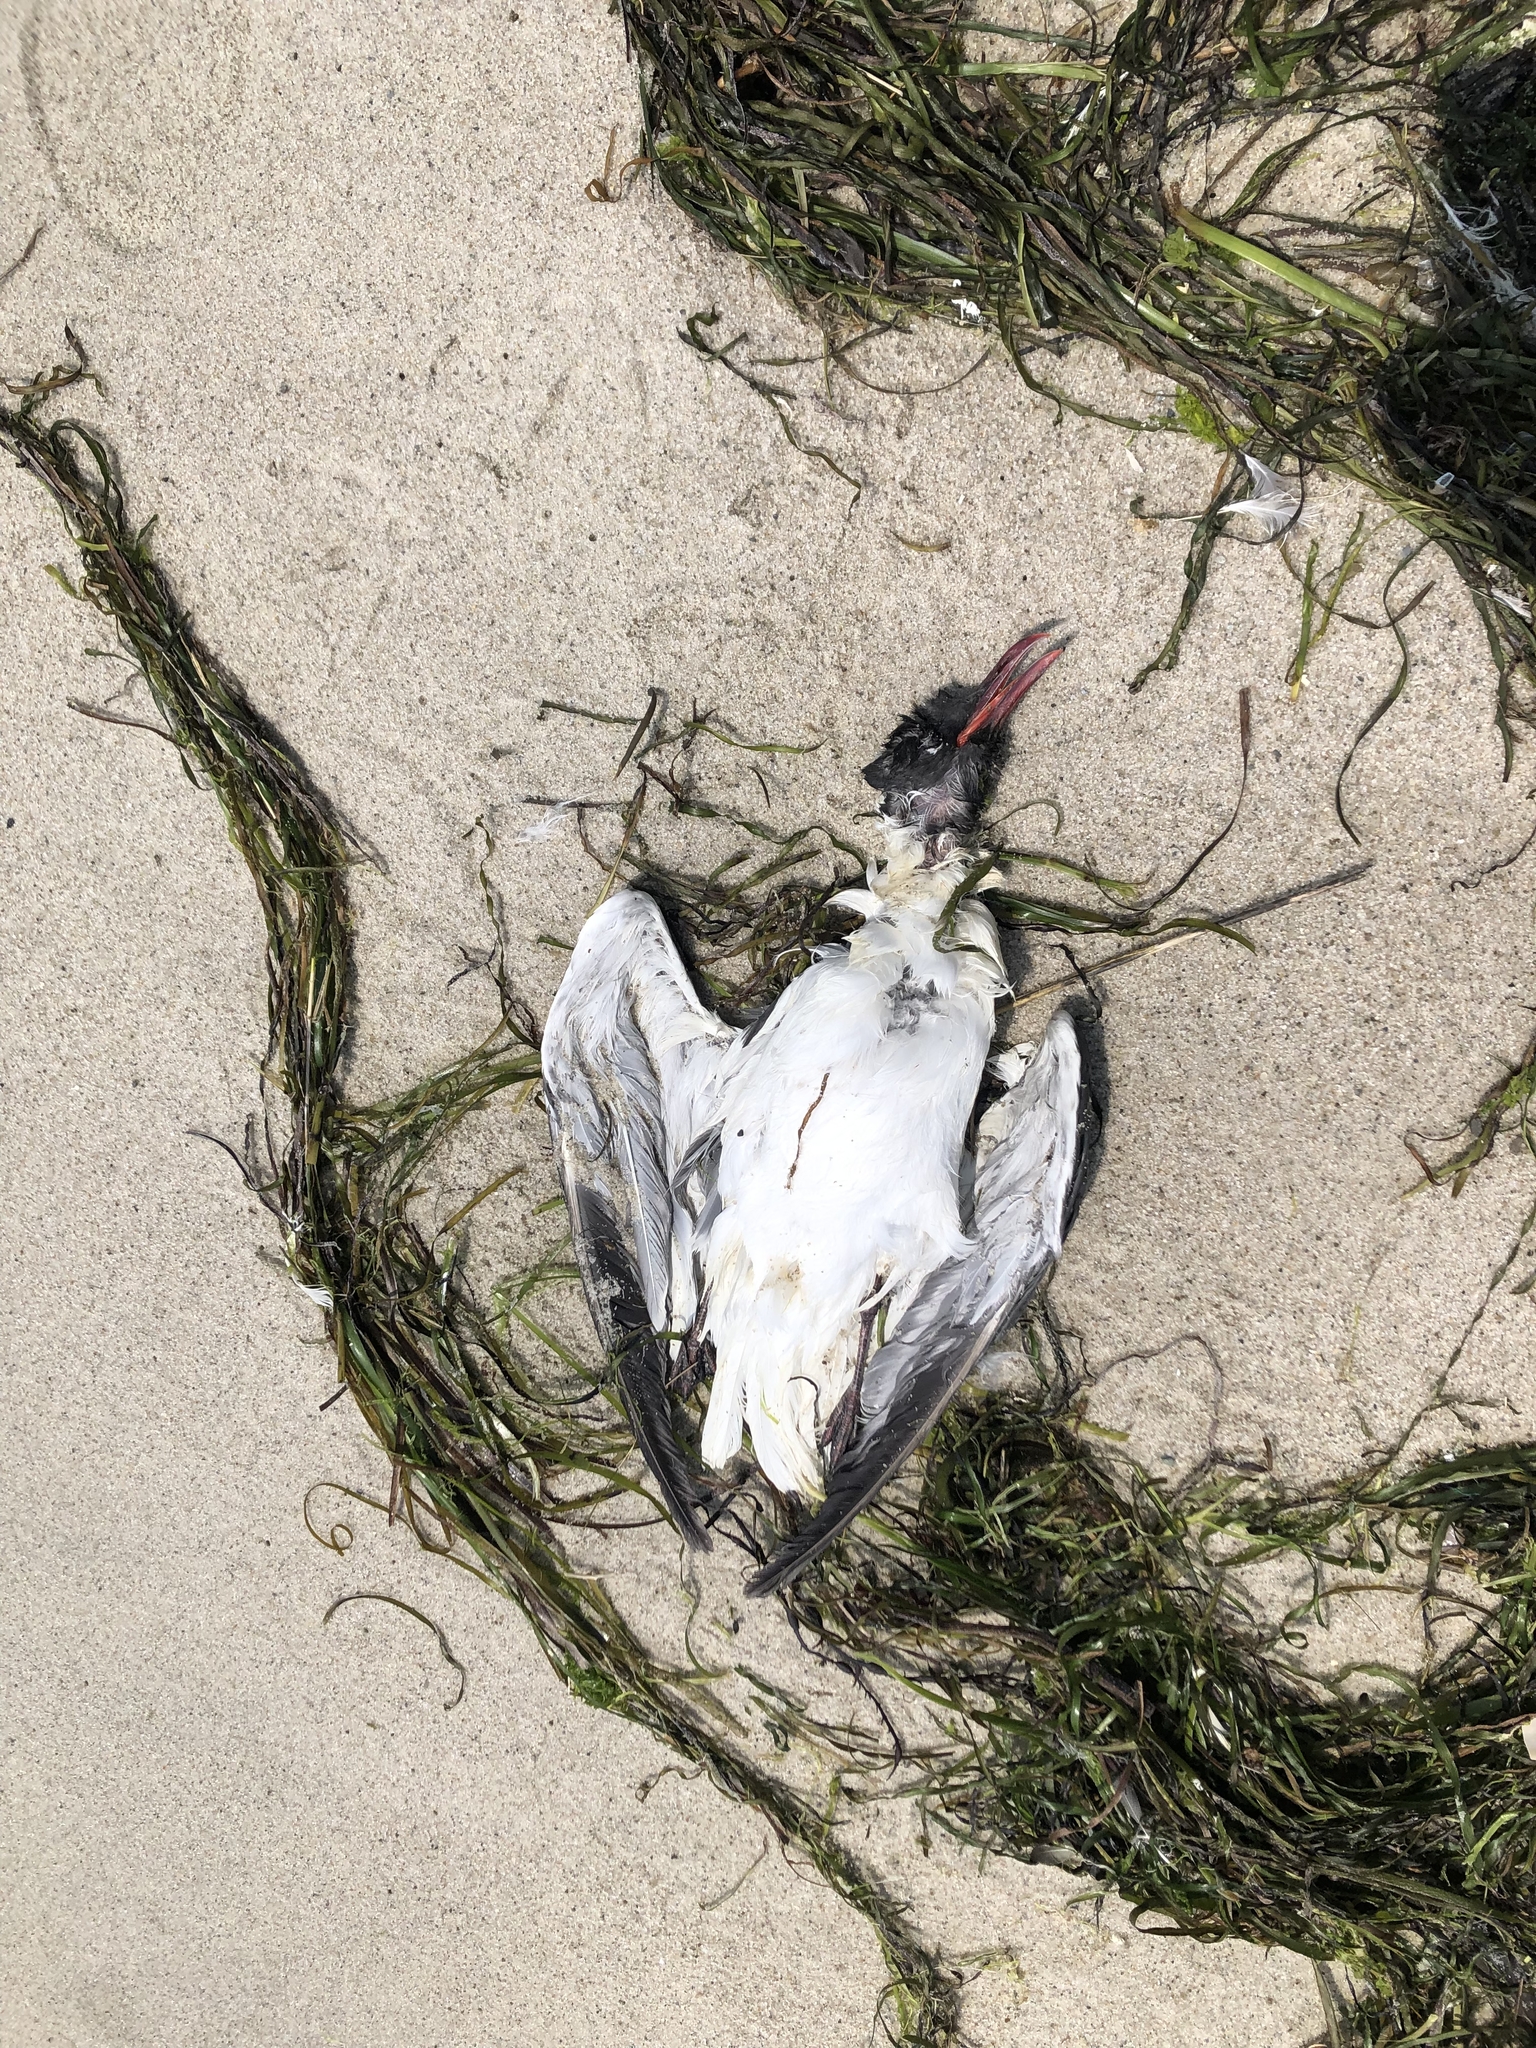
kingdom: Animalia
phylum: Chordata
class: Aves
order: Charadriiformes
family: Laridae
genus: Leucophaeus
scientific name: Leucophaeus atricilla
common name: Laughing gull
